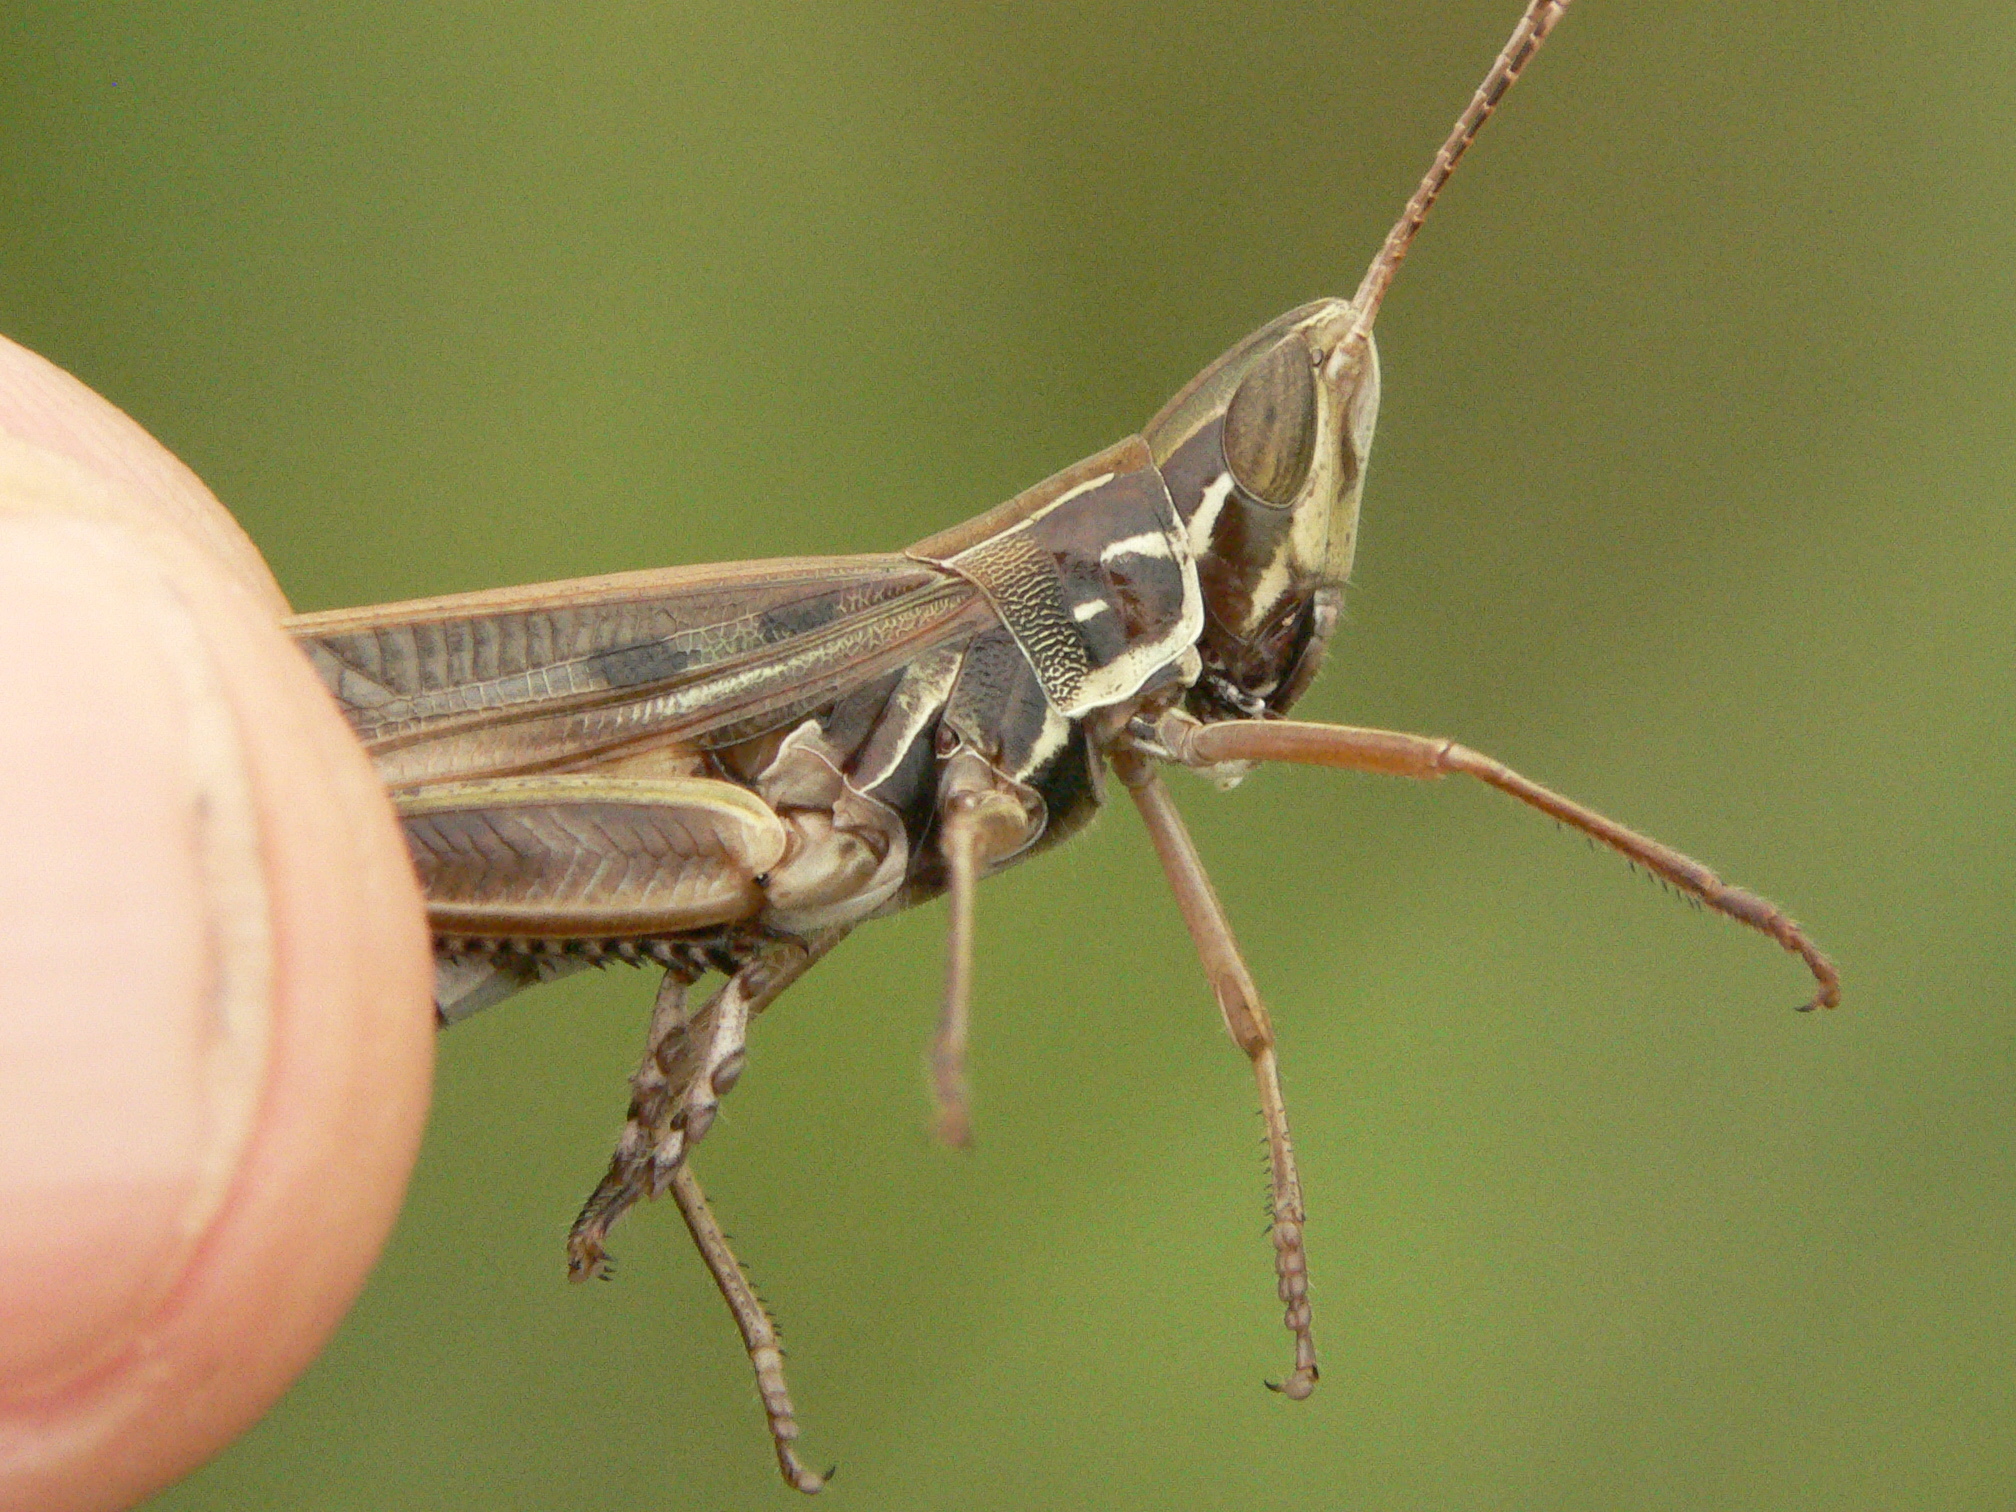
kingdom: Animalia
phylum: Arthropoda
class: Insecta
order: Orthoptera
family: Acrididae
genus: Syrbula
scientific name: Syrbula admirabilis
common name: Handsome grasshopper
